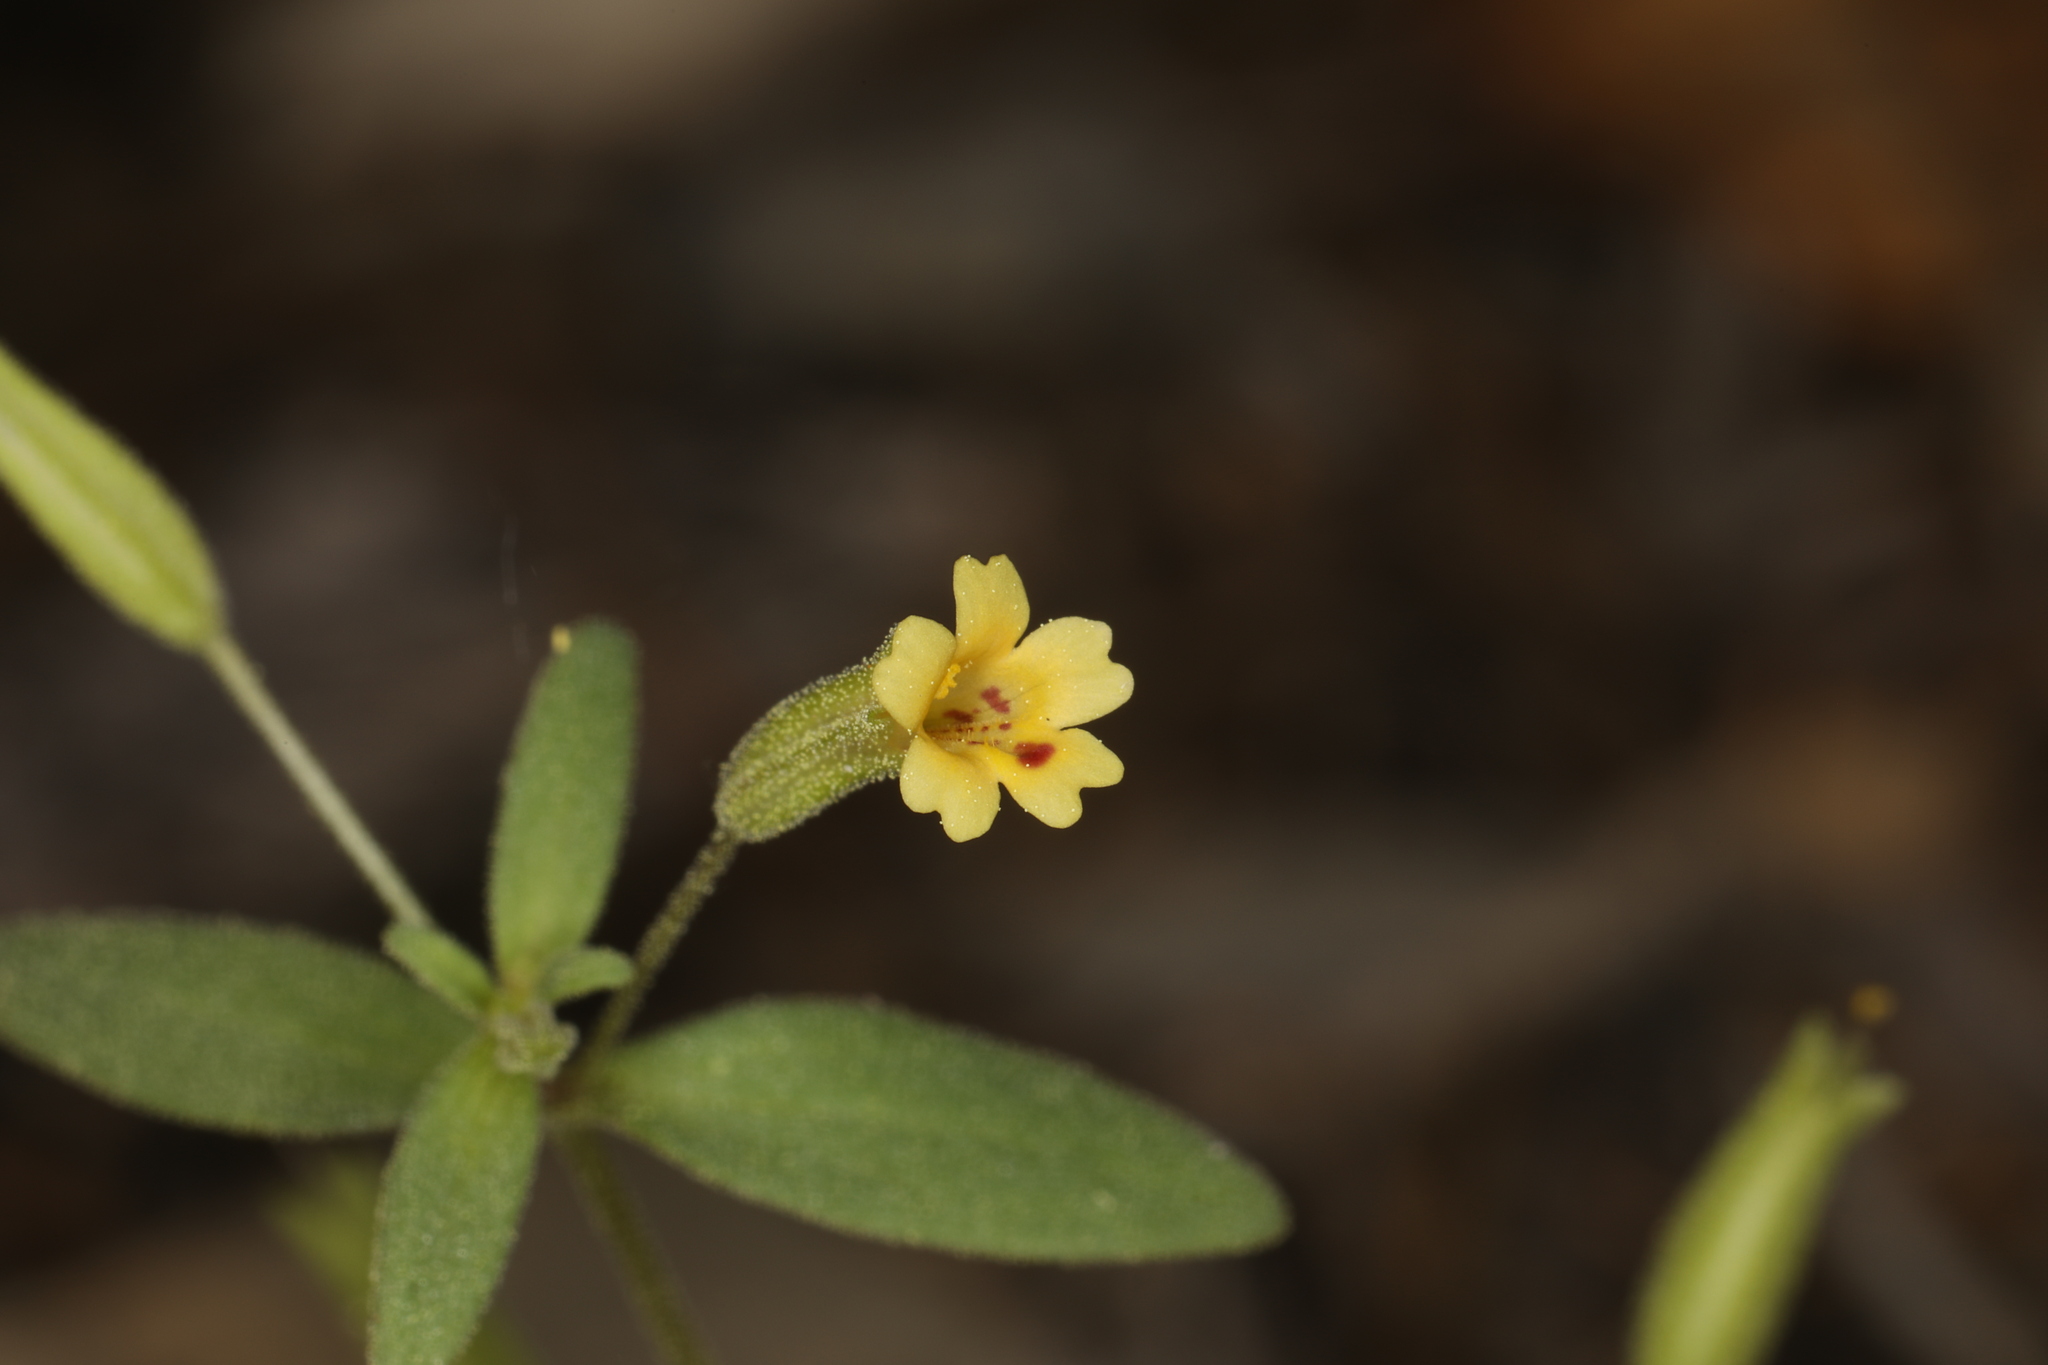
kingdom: Plantae
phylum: Tracheophyta
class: Magnoliopsida
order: Lamiales
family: Phrymaceae
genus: Erythranthe
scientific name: Erythranthe rubella
